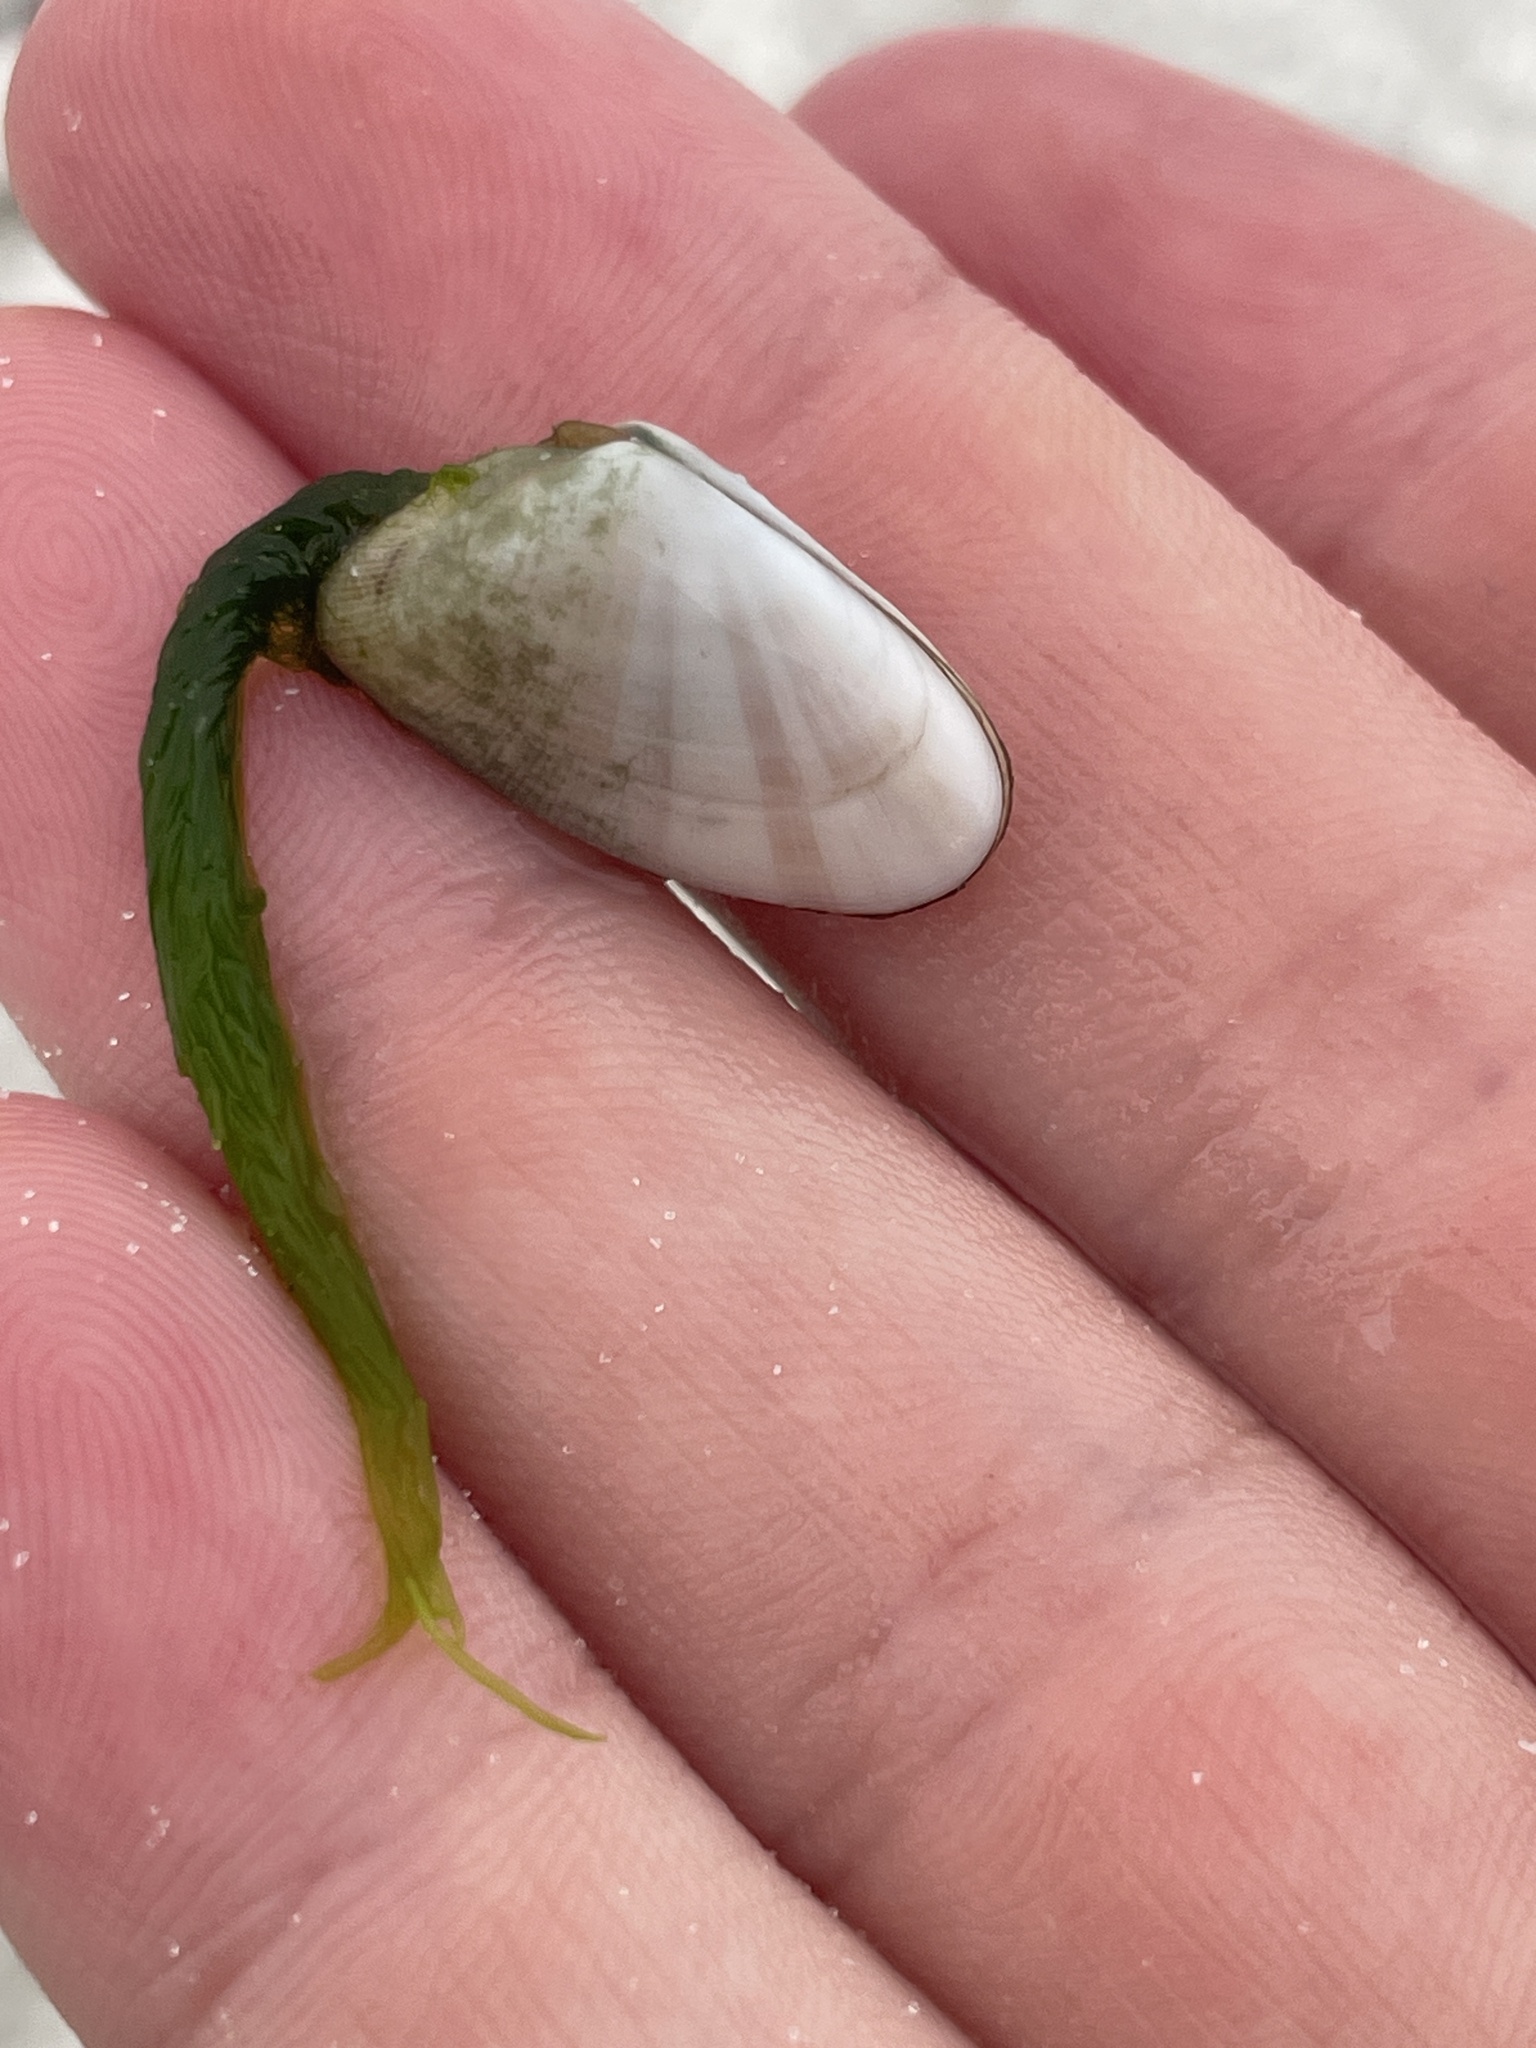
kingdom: Animalia
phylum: Mollusca
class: Bivalvia
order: Cardiida
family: Donacidae
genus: Donax
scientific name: Donax variabilis
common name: Butterfly shell
